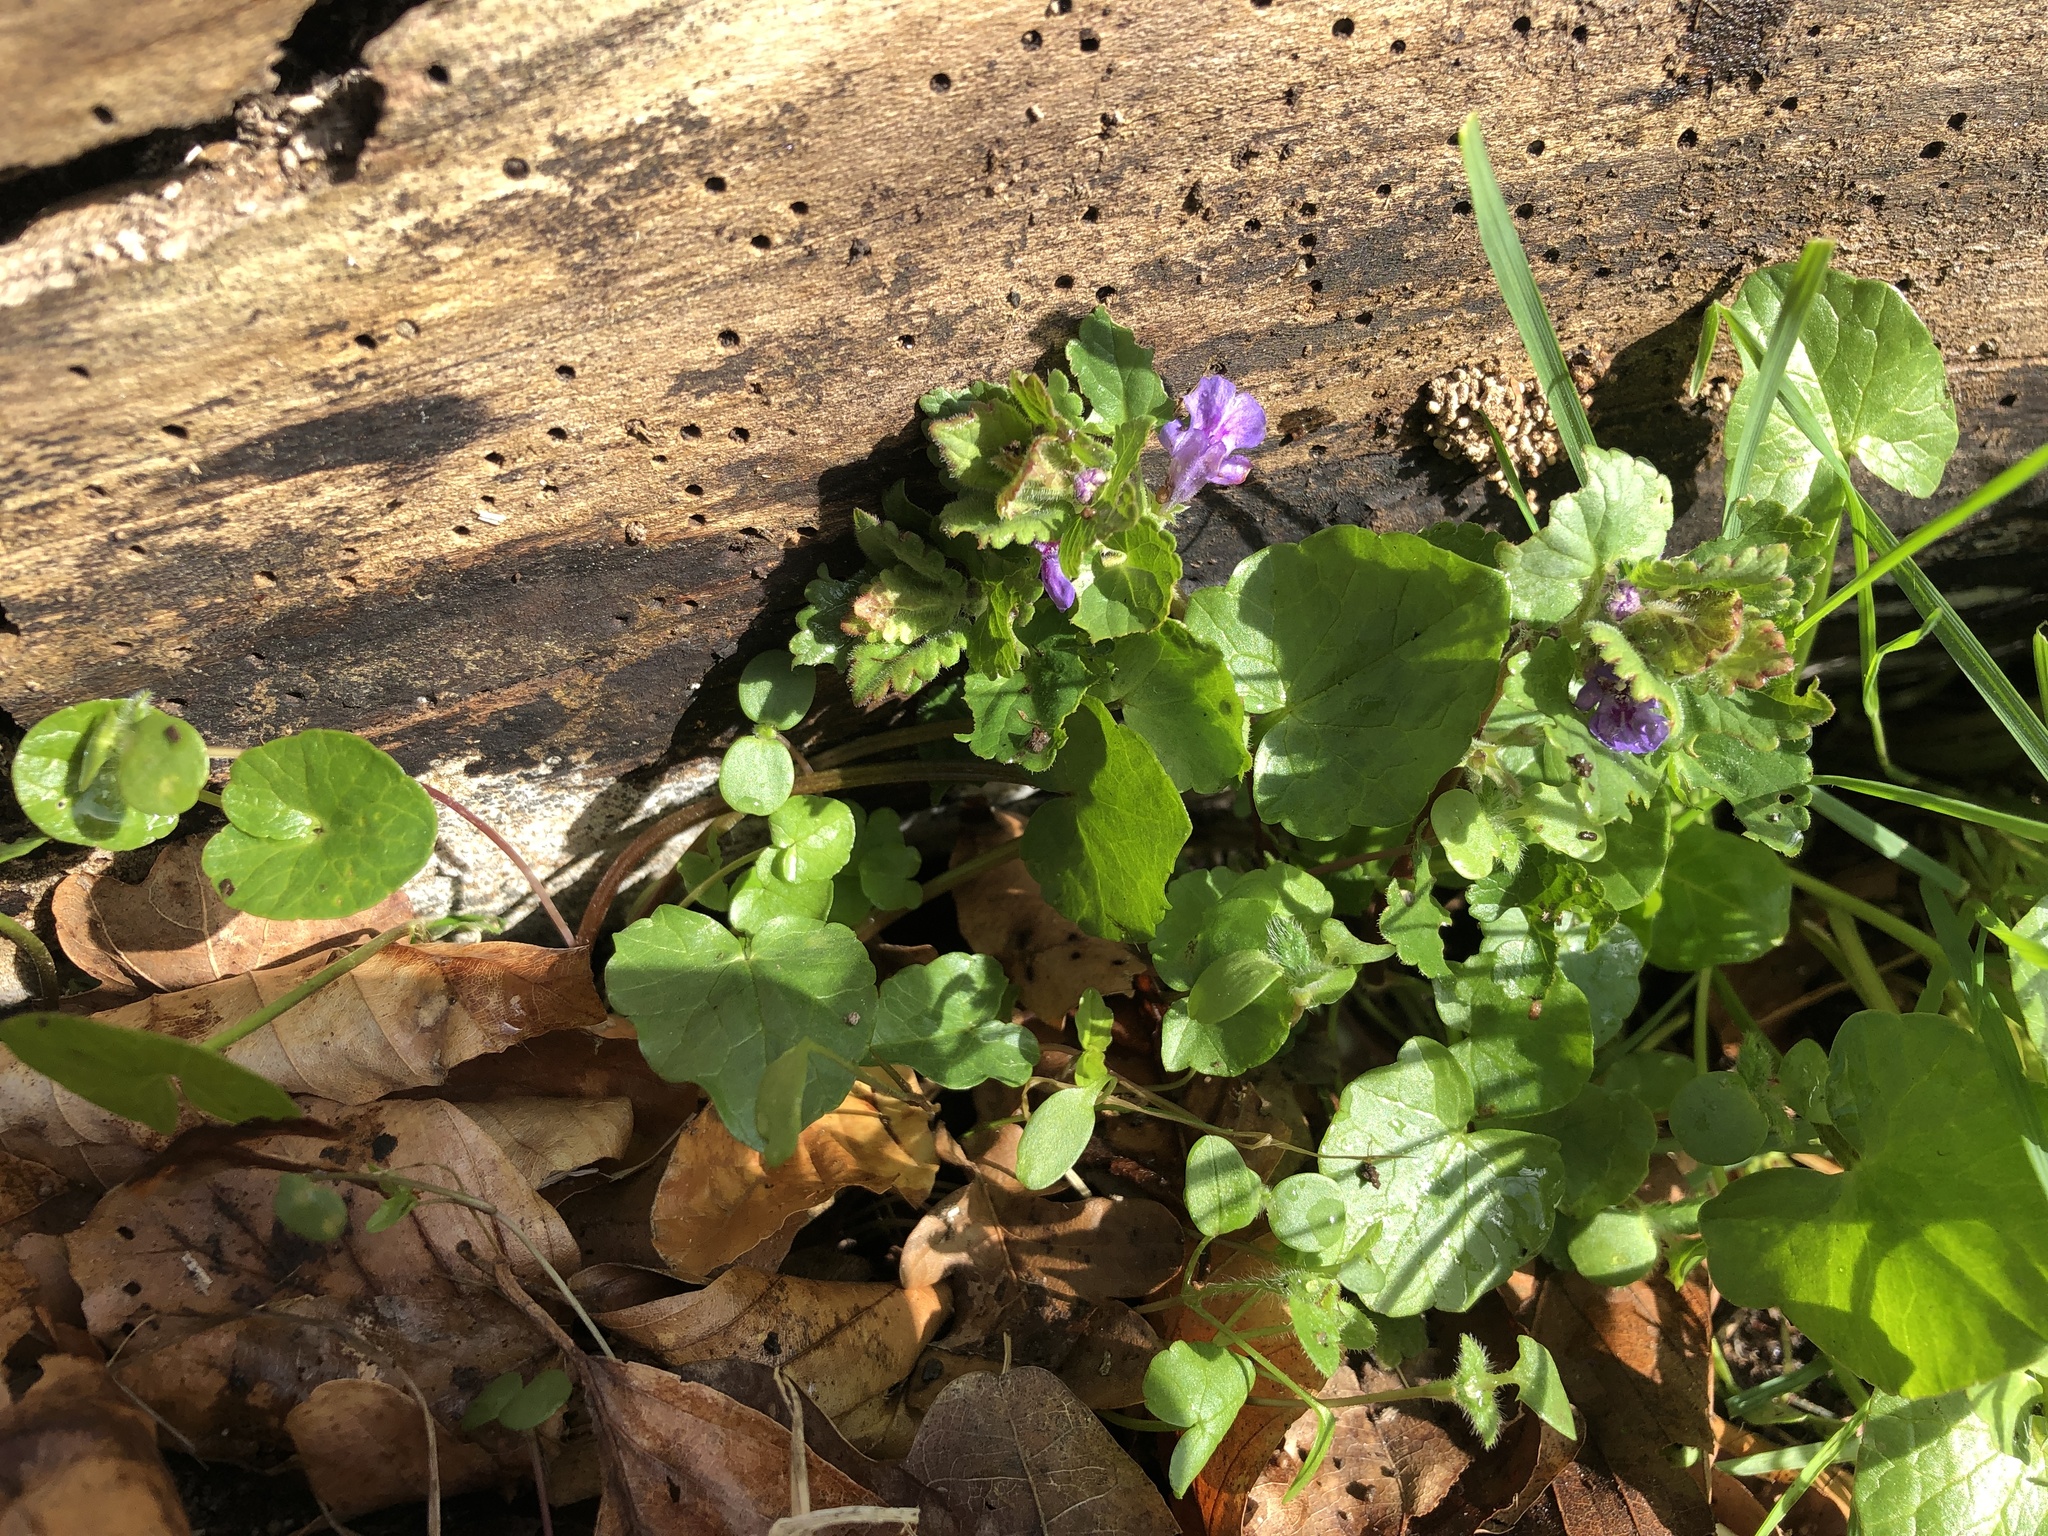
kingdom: Plantae
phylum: Tracheophyta
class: Magnoliopsida
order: Lamiales
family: Lamiaceae
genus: Glechoma
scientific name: Glechoma hederacea
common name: Ground ivy
